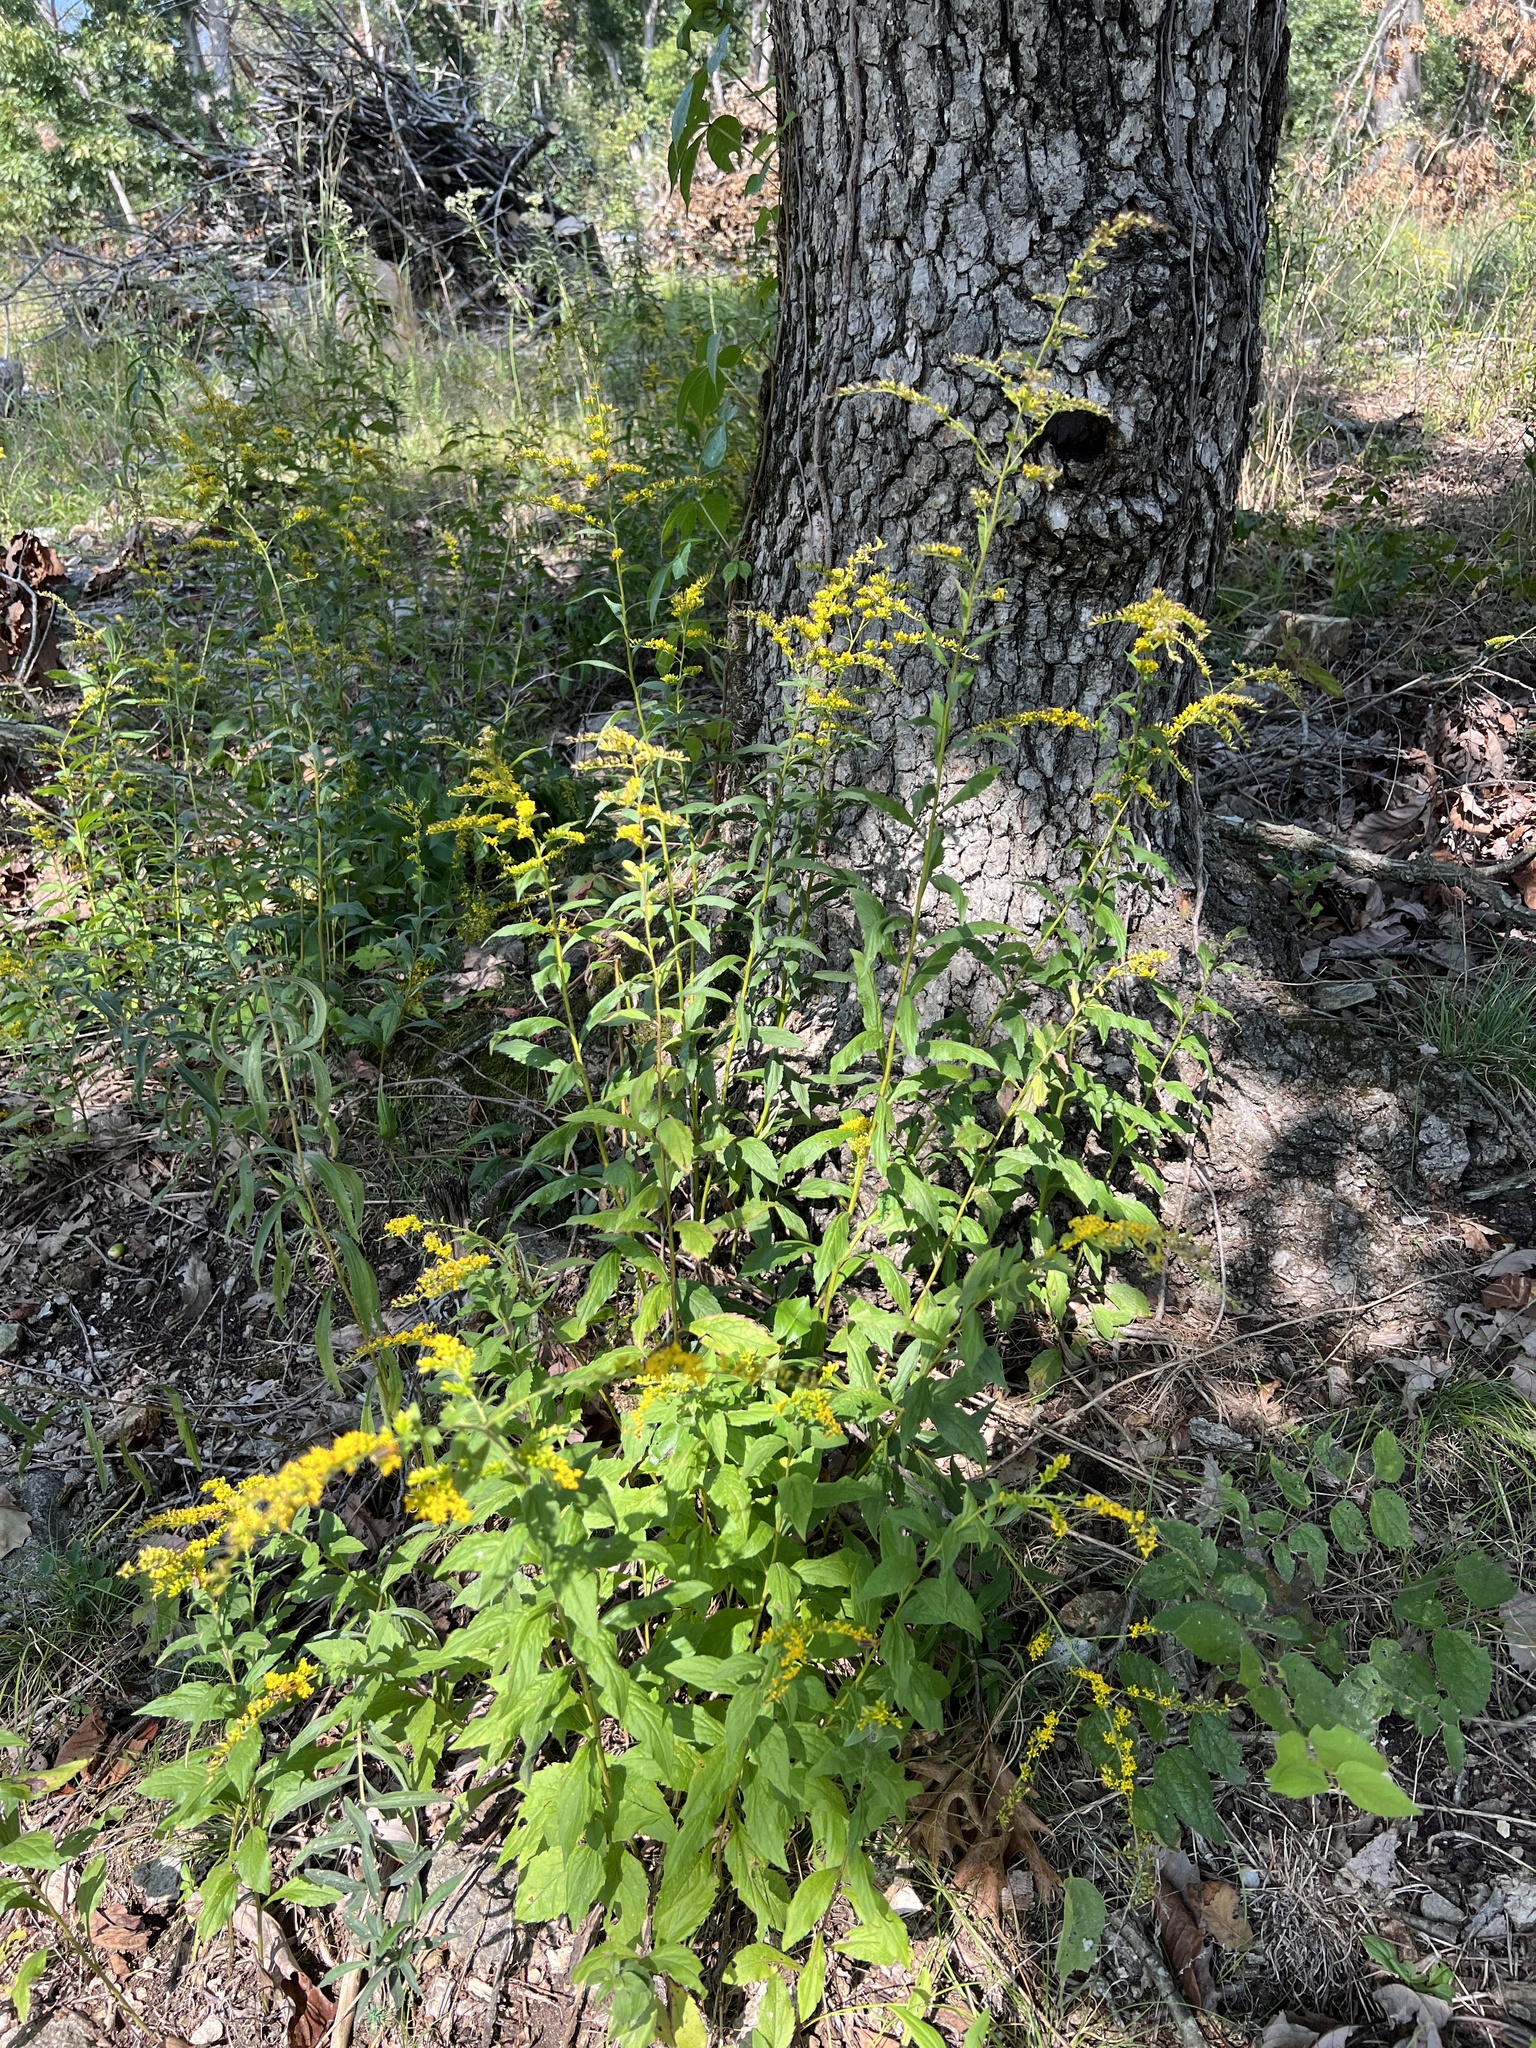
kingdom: Plantae
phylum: Tracheophyta
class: Magnoliopsida
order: Asterales
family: Asteraceae
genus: Solidago
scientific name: Solidago ulmifolia
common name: Elm-leaf goldenrod
